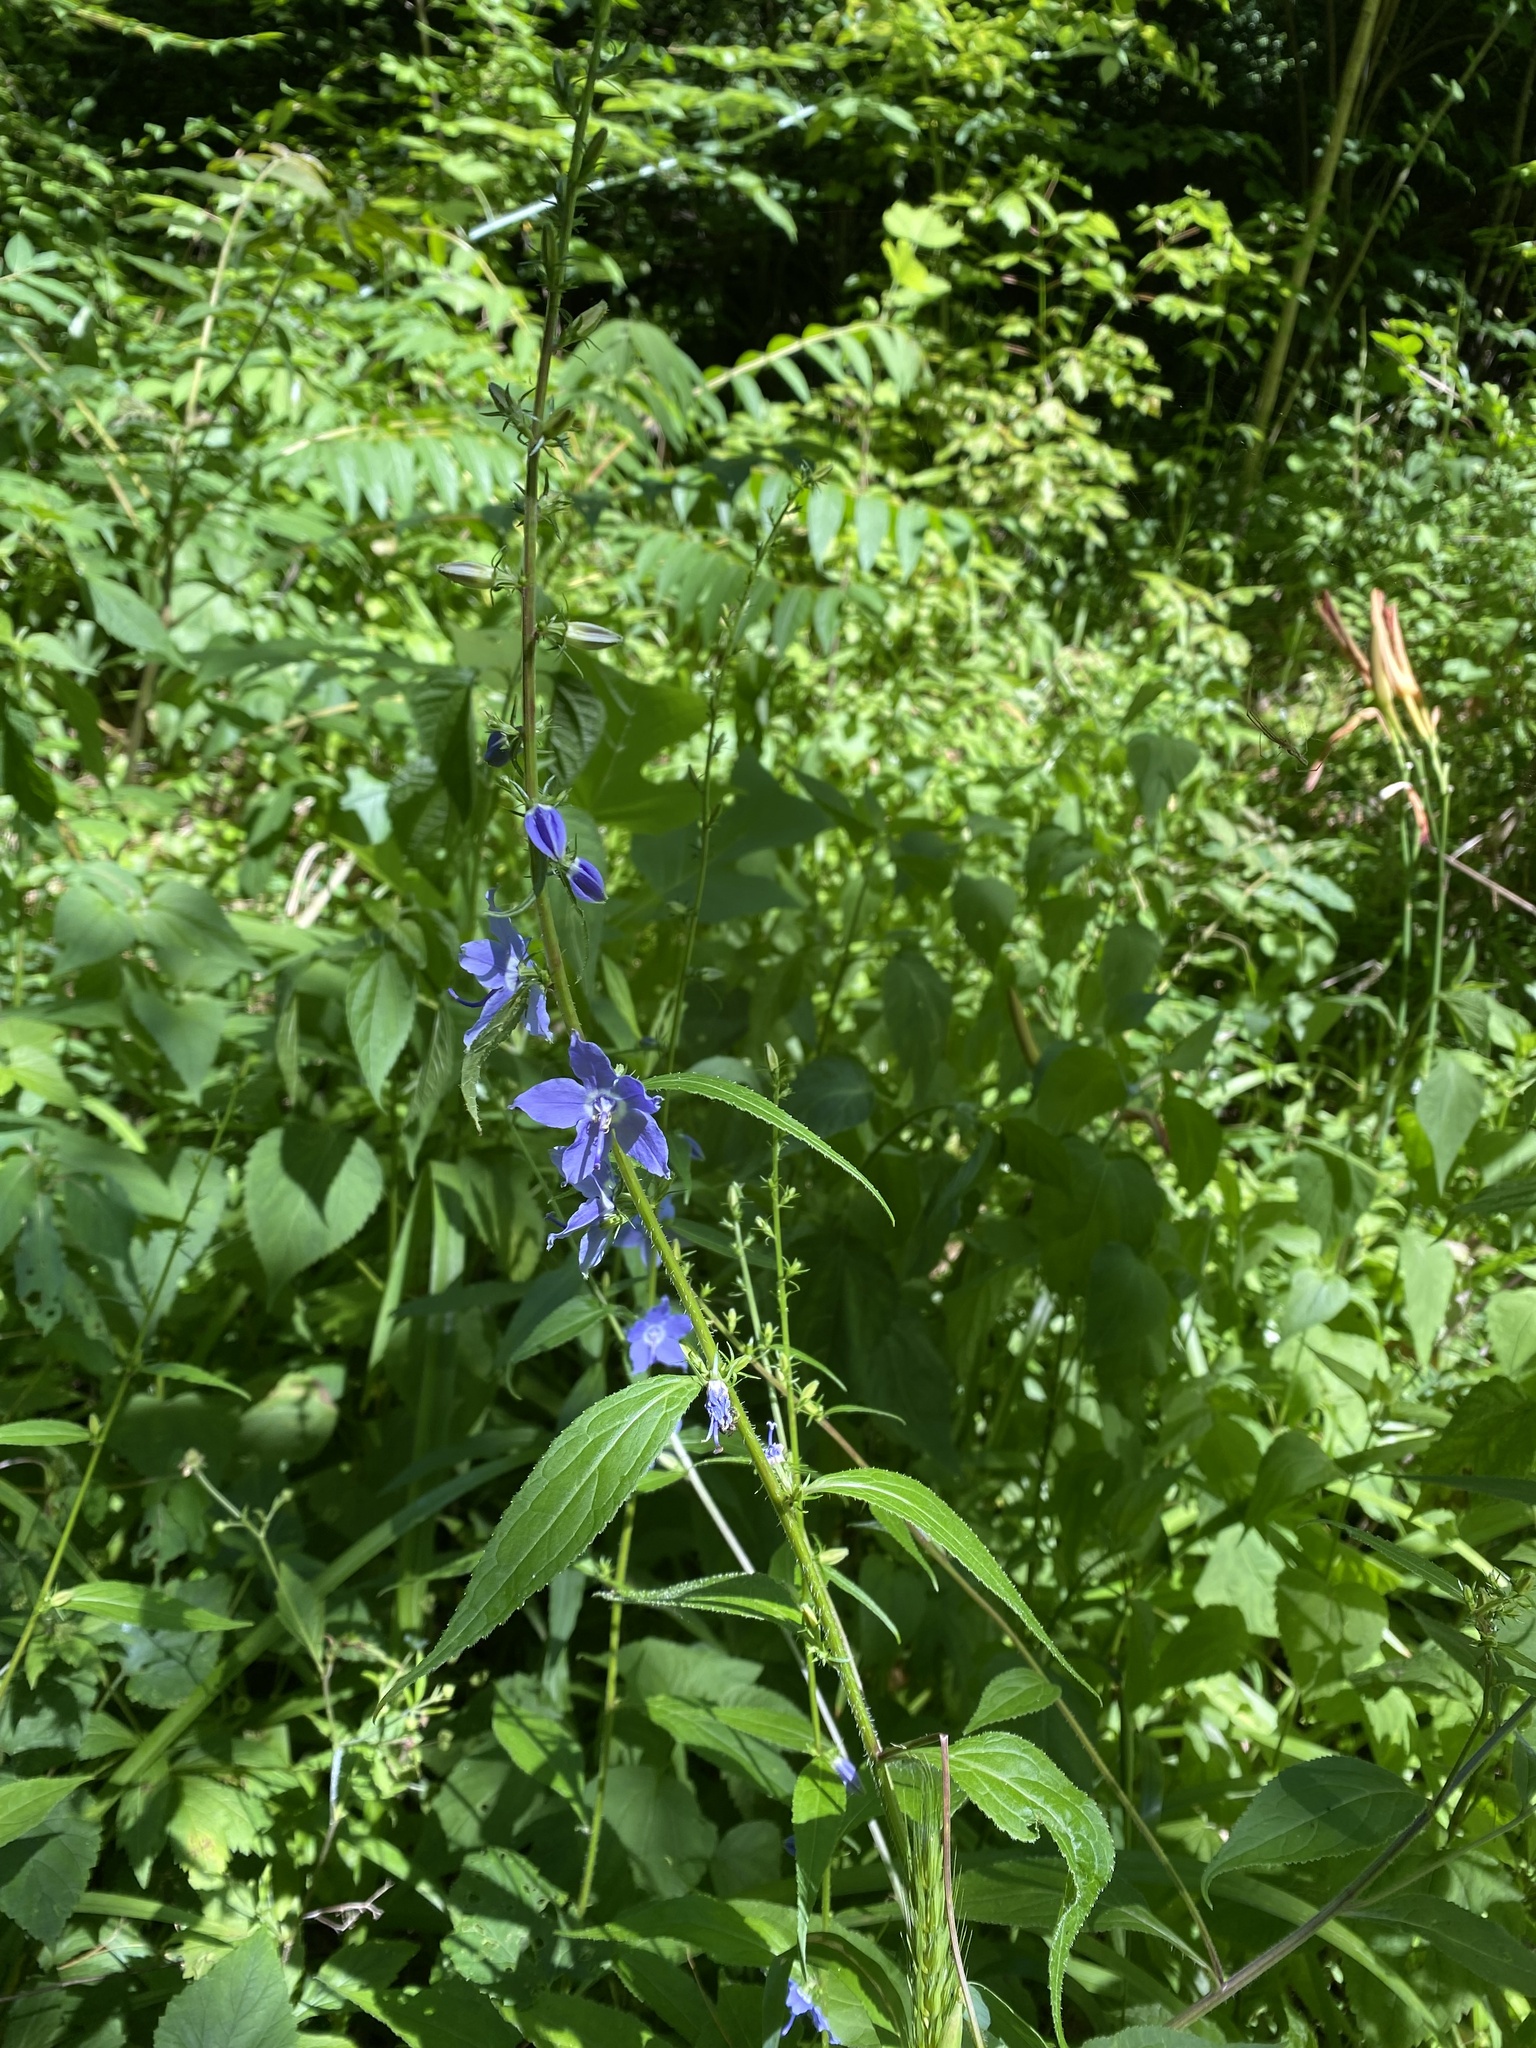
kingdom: Plantae
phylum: Tracheophyta
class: Magnoliopsida
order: Asterales
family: Campanulaceae
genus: Campanulastrum
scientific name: Campanulastrum americanum
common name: American bellflower
